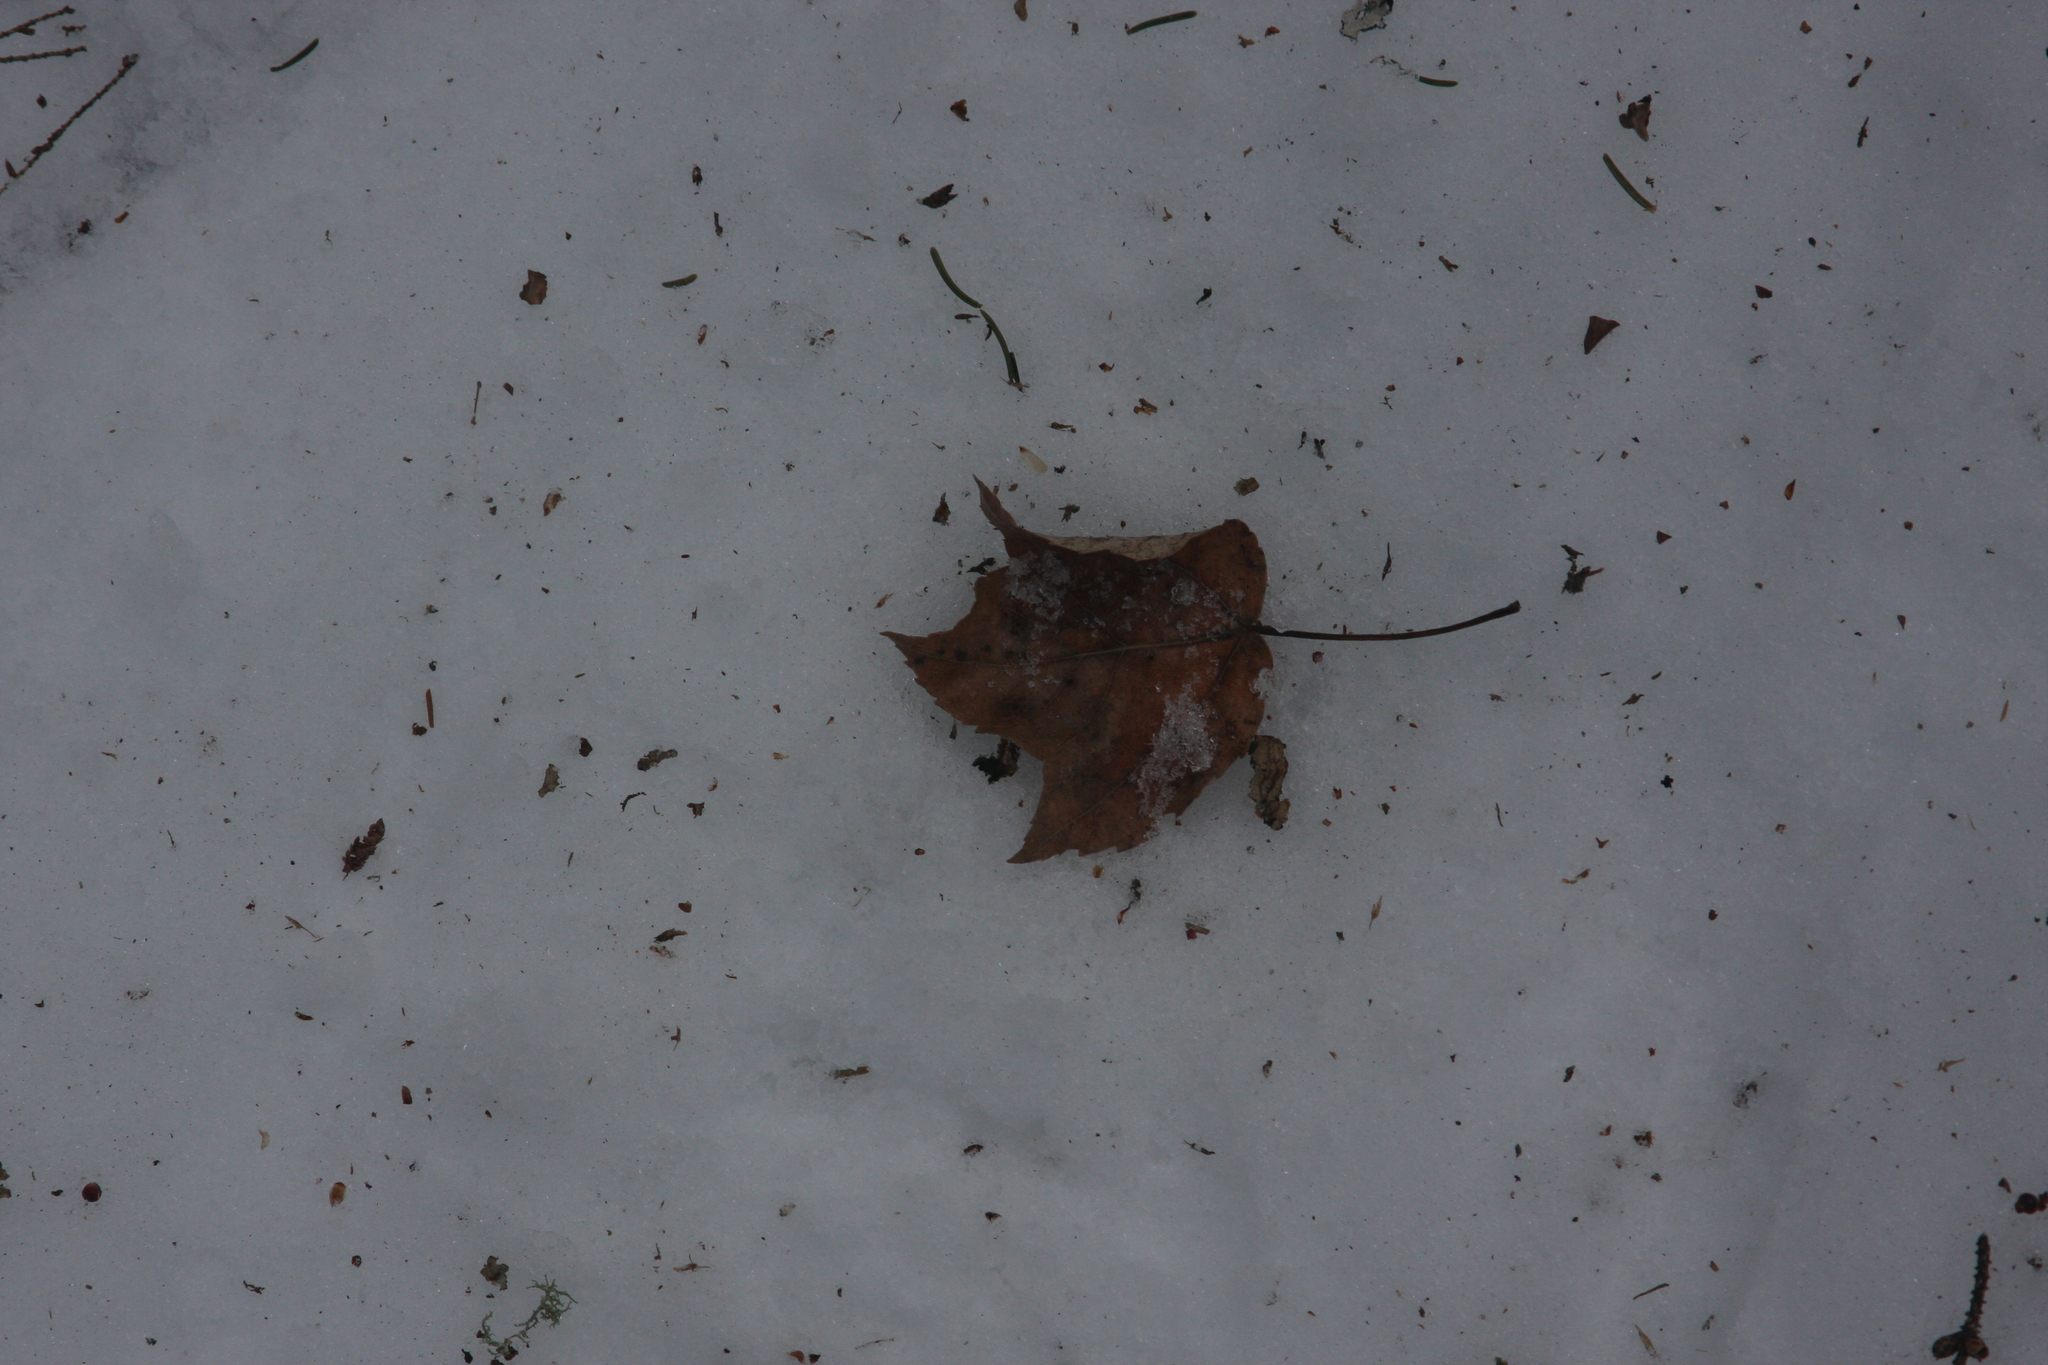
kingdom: Plantae
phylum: Tracheophyta
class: Magnoliopsida
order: Sapindales
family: Sapindaceae
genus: Acer
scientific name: Acer rubrum
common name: Red maple
